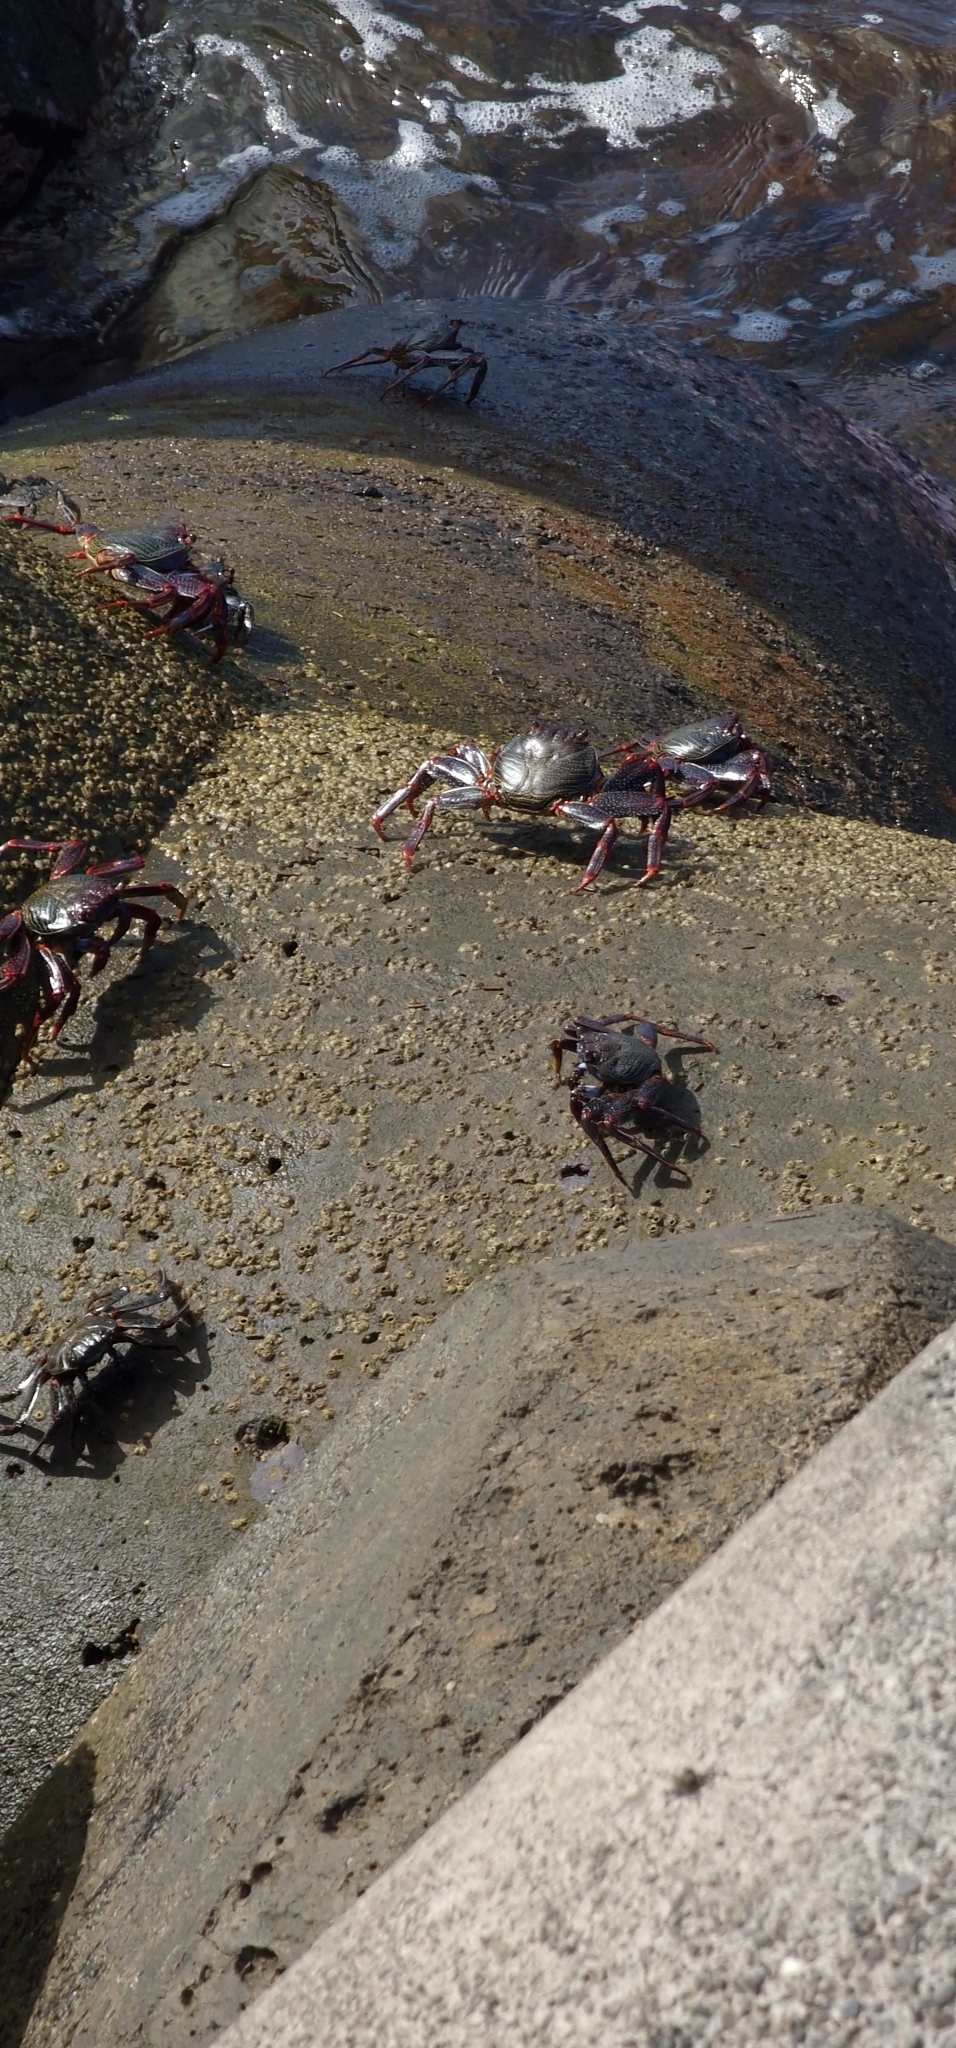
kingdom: Animalia
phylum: Arthropoda
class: Malacostraca
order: Decapoda
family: Grapsidae
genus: Grapsus
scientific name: Grapsus adscensionis
